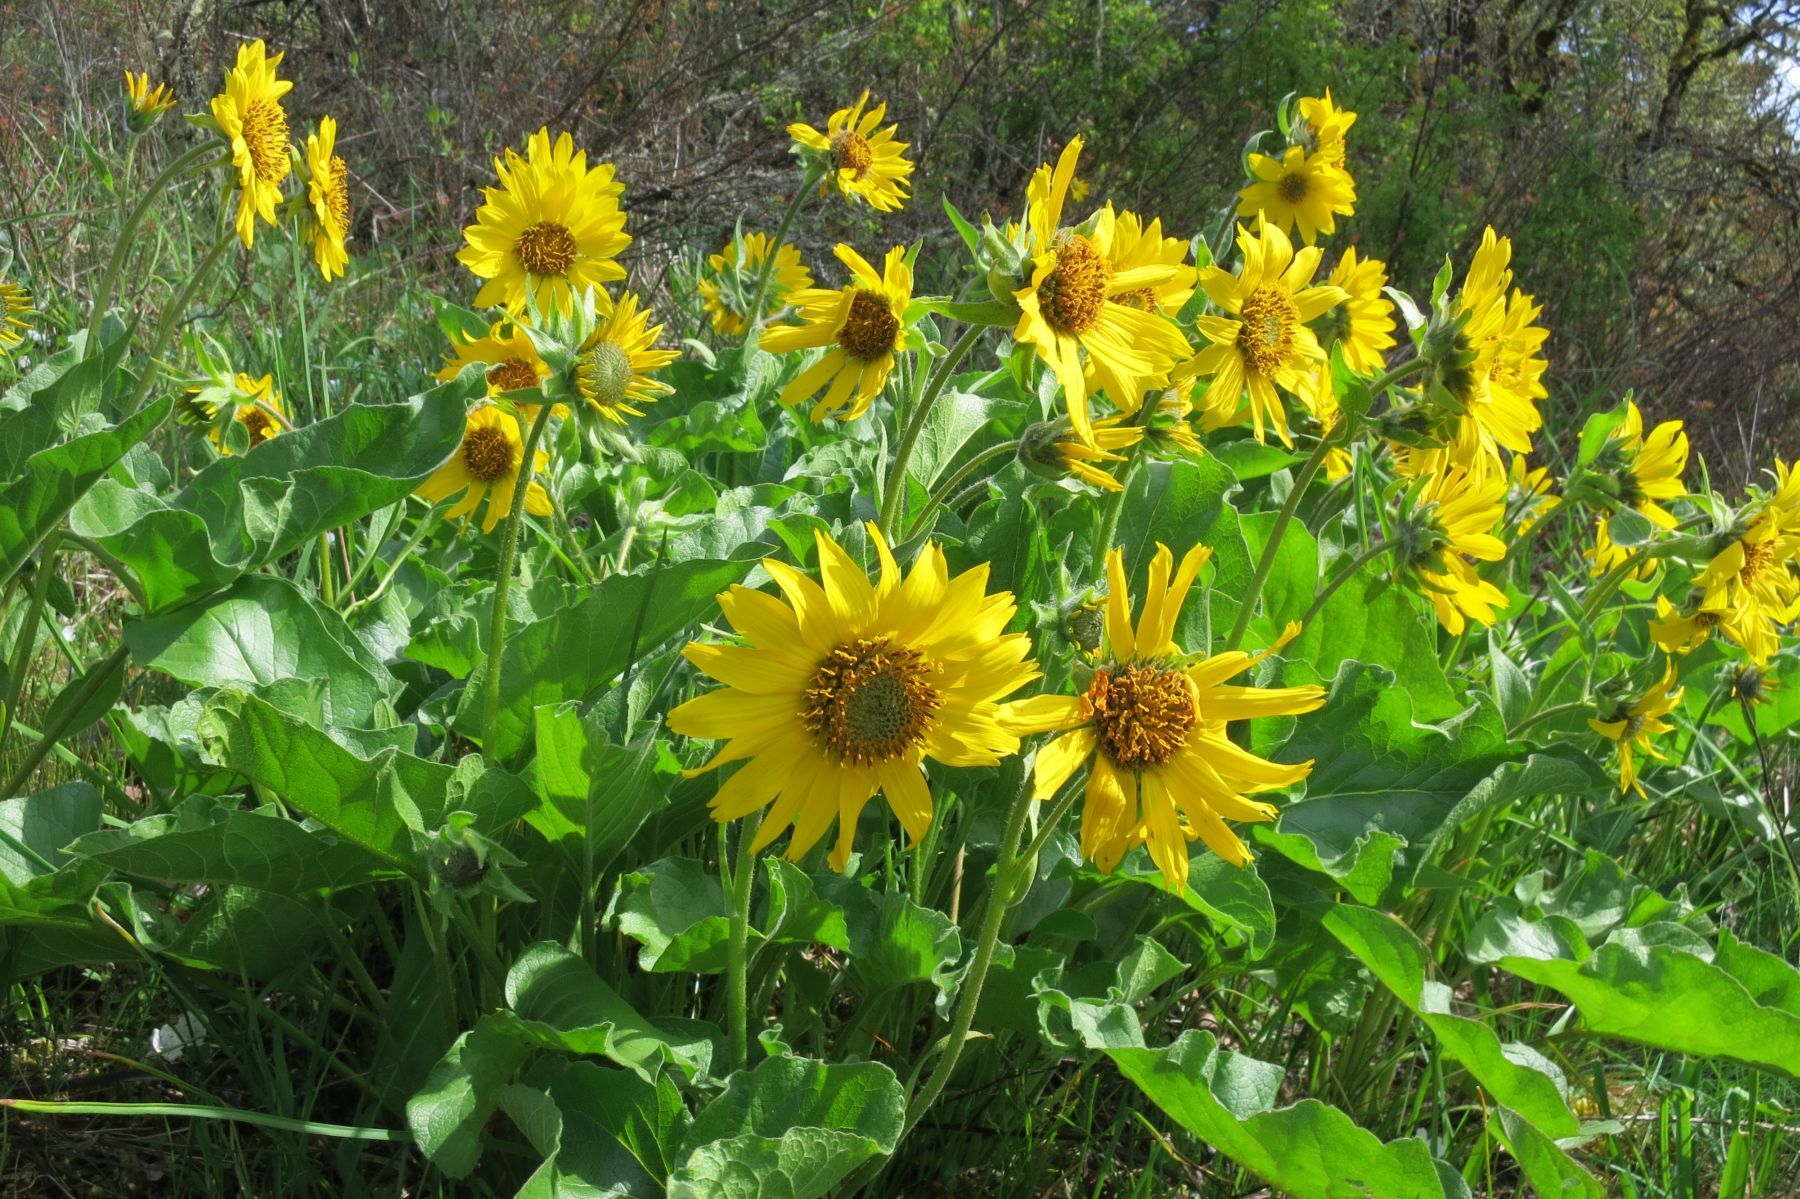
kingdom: Plantae
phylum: Tracheophyta
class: Magnoliopsida
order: Asterales
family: Asteraceae
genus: Balsamorhiza
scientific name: Balsamorhiza deltoidea
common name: Deltoid balsamroot
